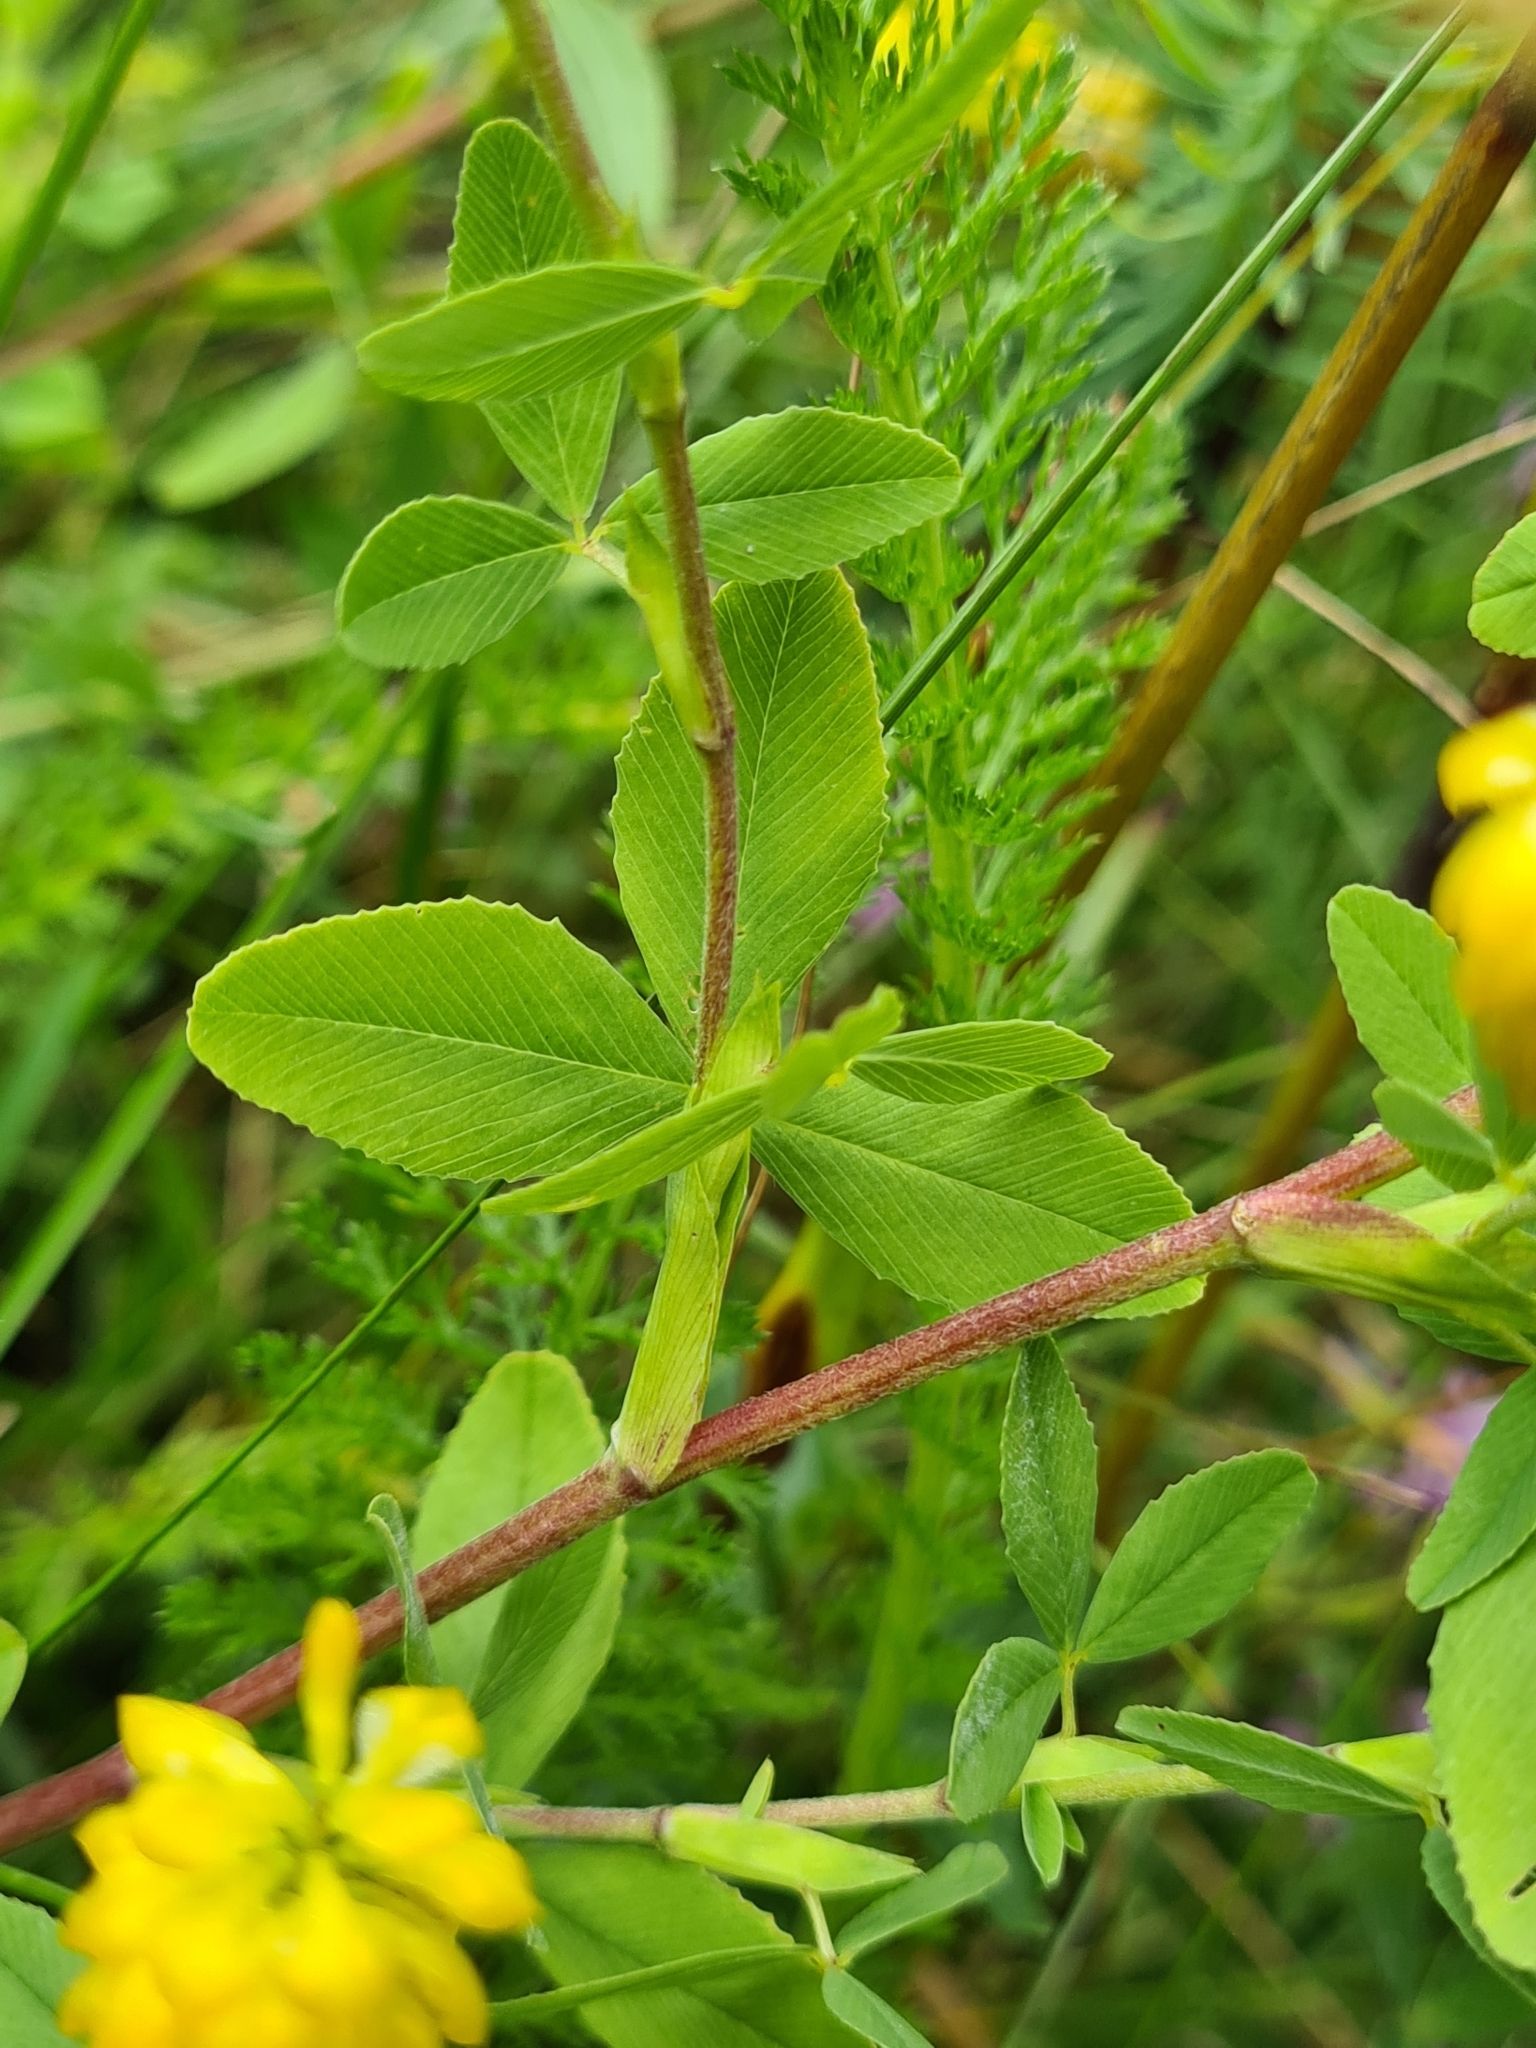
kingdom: Plantae
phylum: Tracheophyta
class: Magnoliopsida
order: Fabales
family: Fabaceae
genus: Trifolium
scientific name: Trifolium aureum
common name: Golden clover
